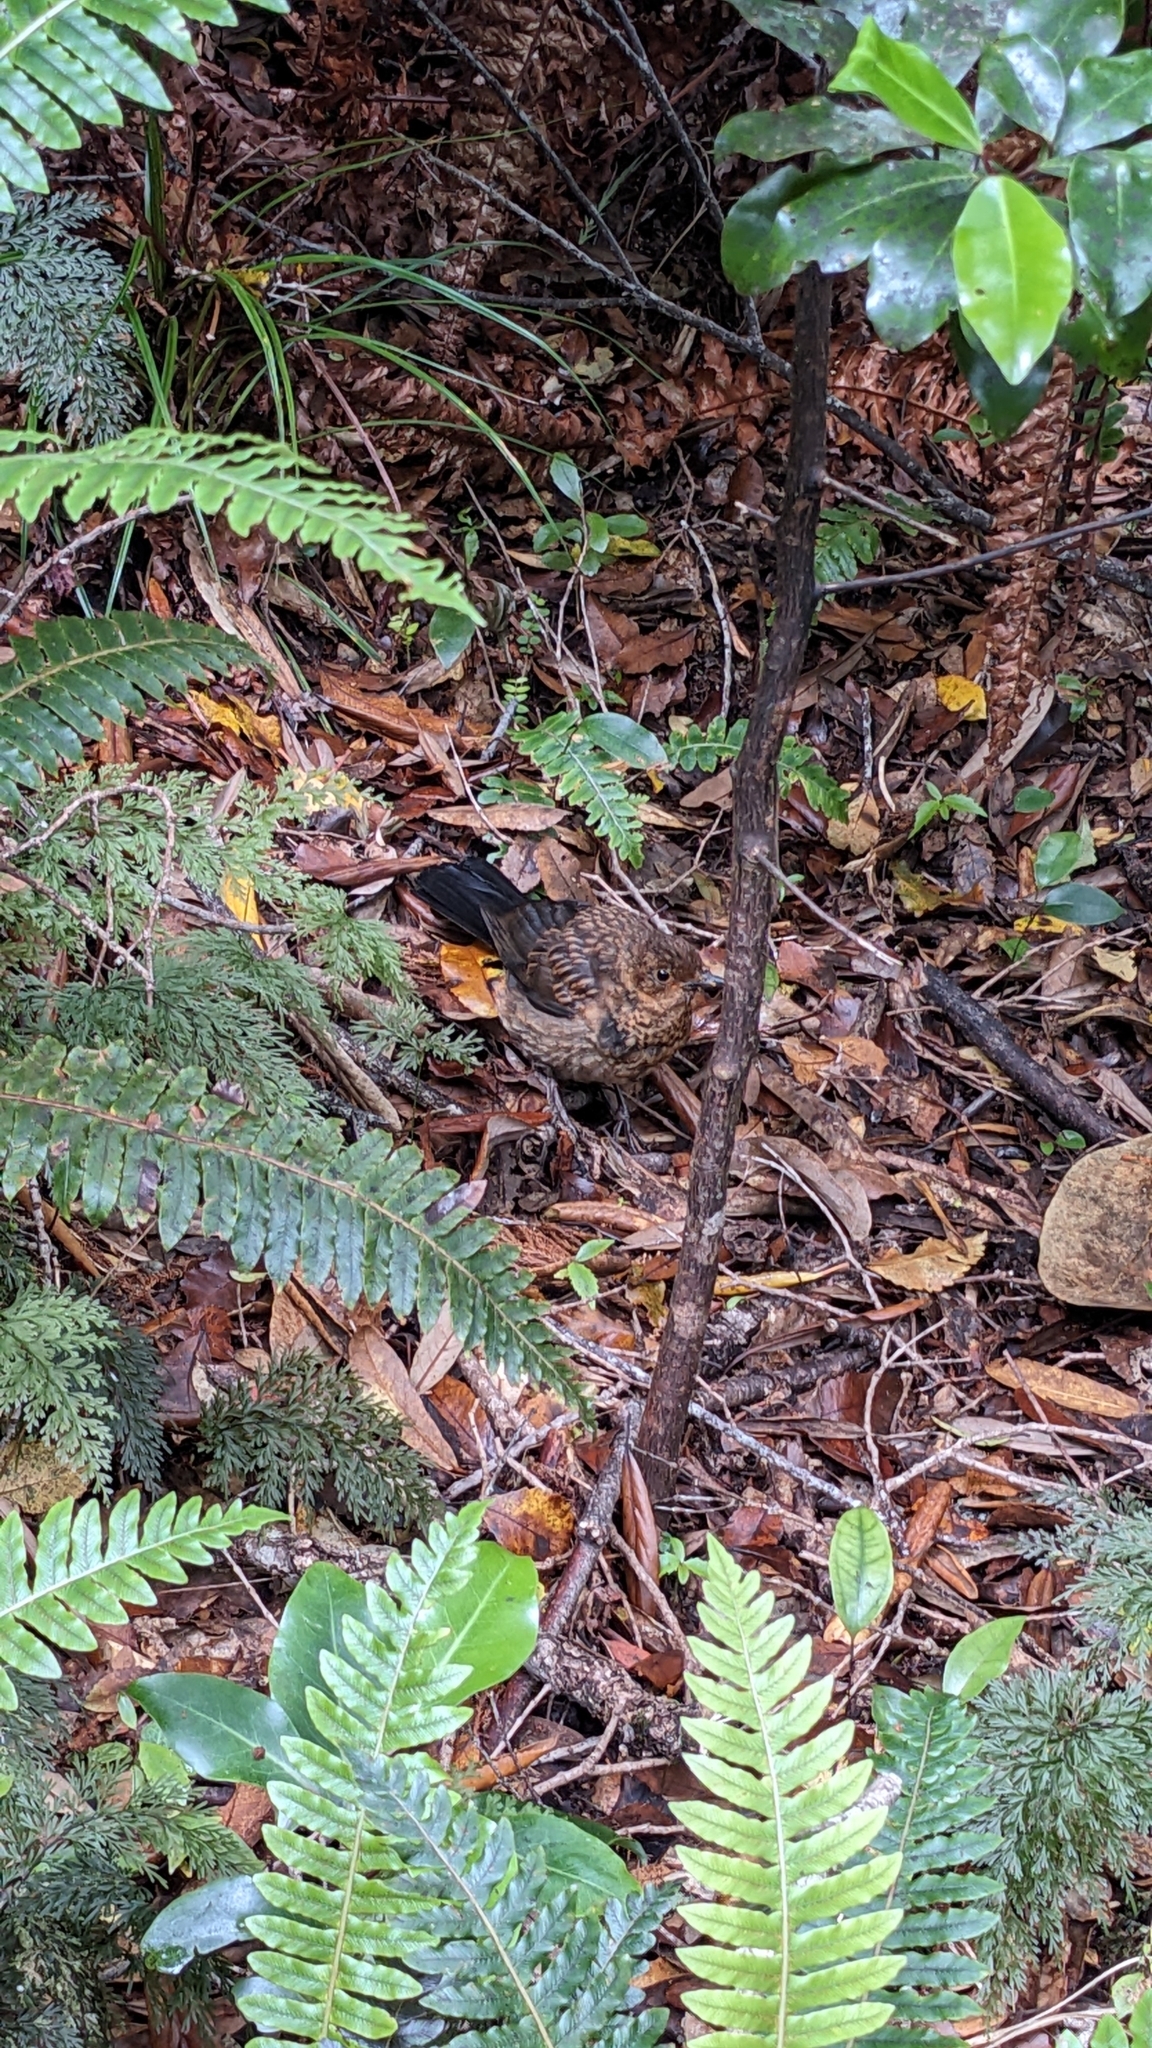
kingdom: Animalia
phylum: Chordata
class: Aves
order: Passeriformes
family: Turdidae
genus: Turdus
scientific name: Turdus merula
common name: Common blackbird
